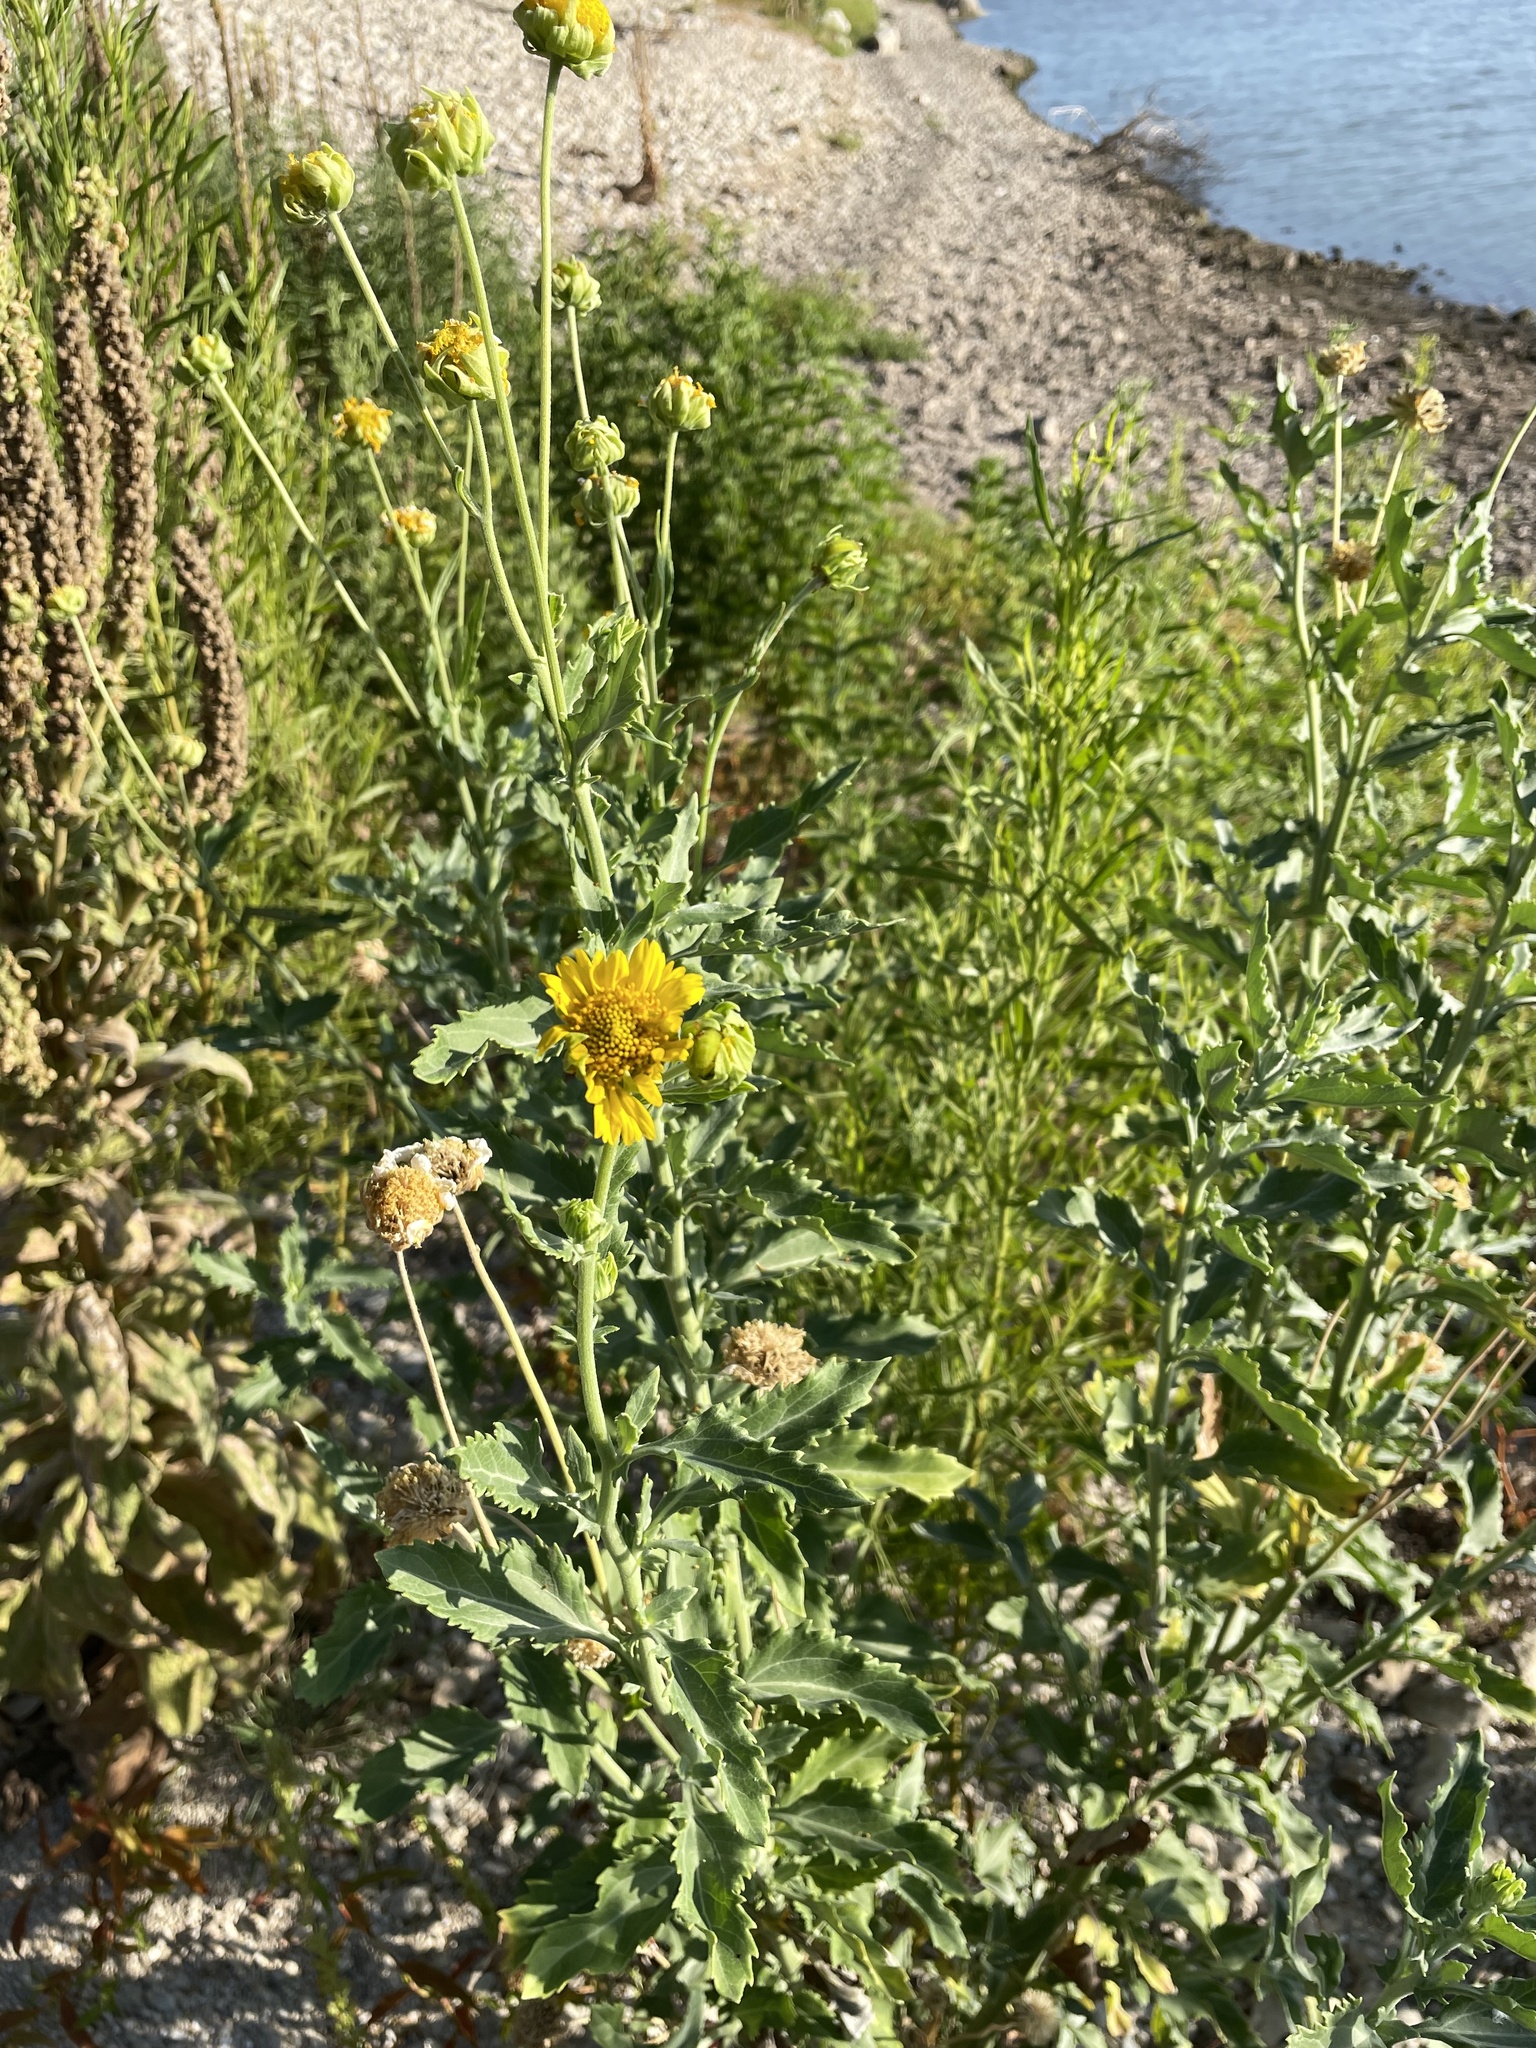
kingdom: Plantae
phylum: Tracheophyta
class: Magnoliopsida
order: Asterales
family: Asteraceae
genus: Verbesina
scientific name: Verbesina encelioides
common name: Golden crownbeard
